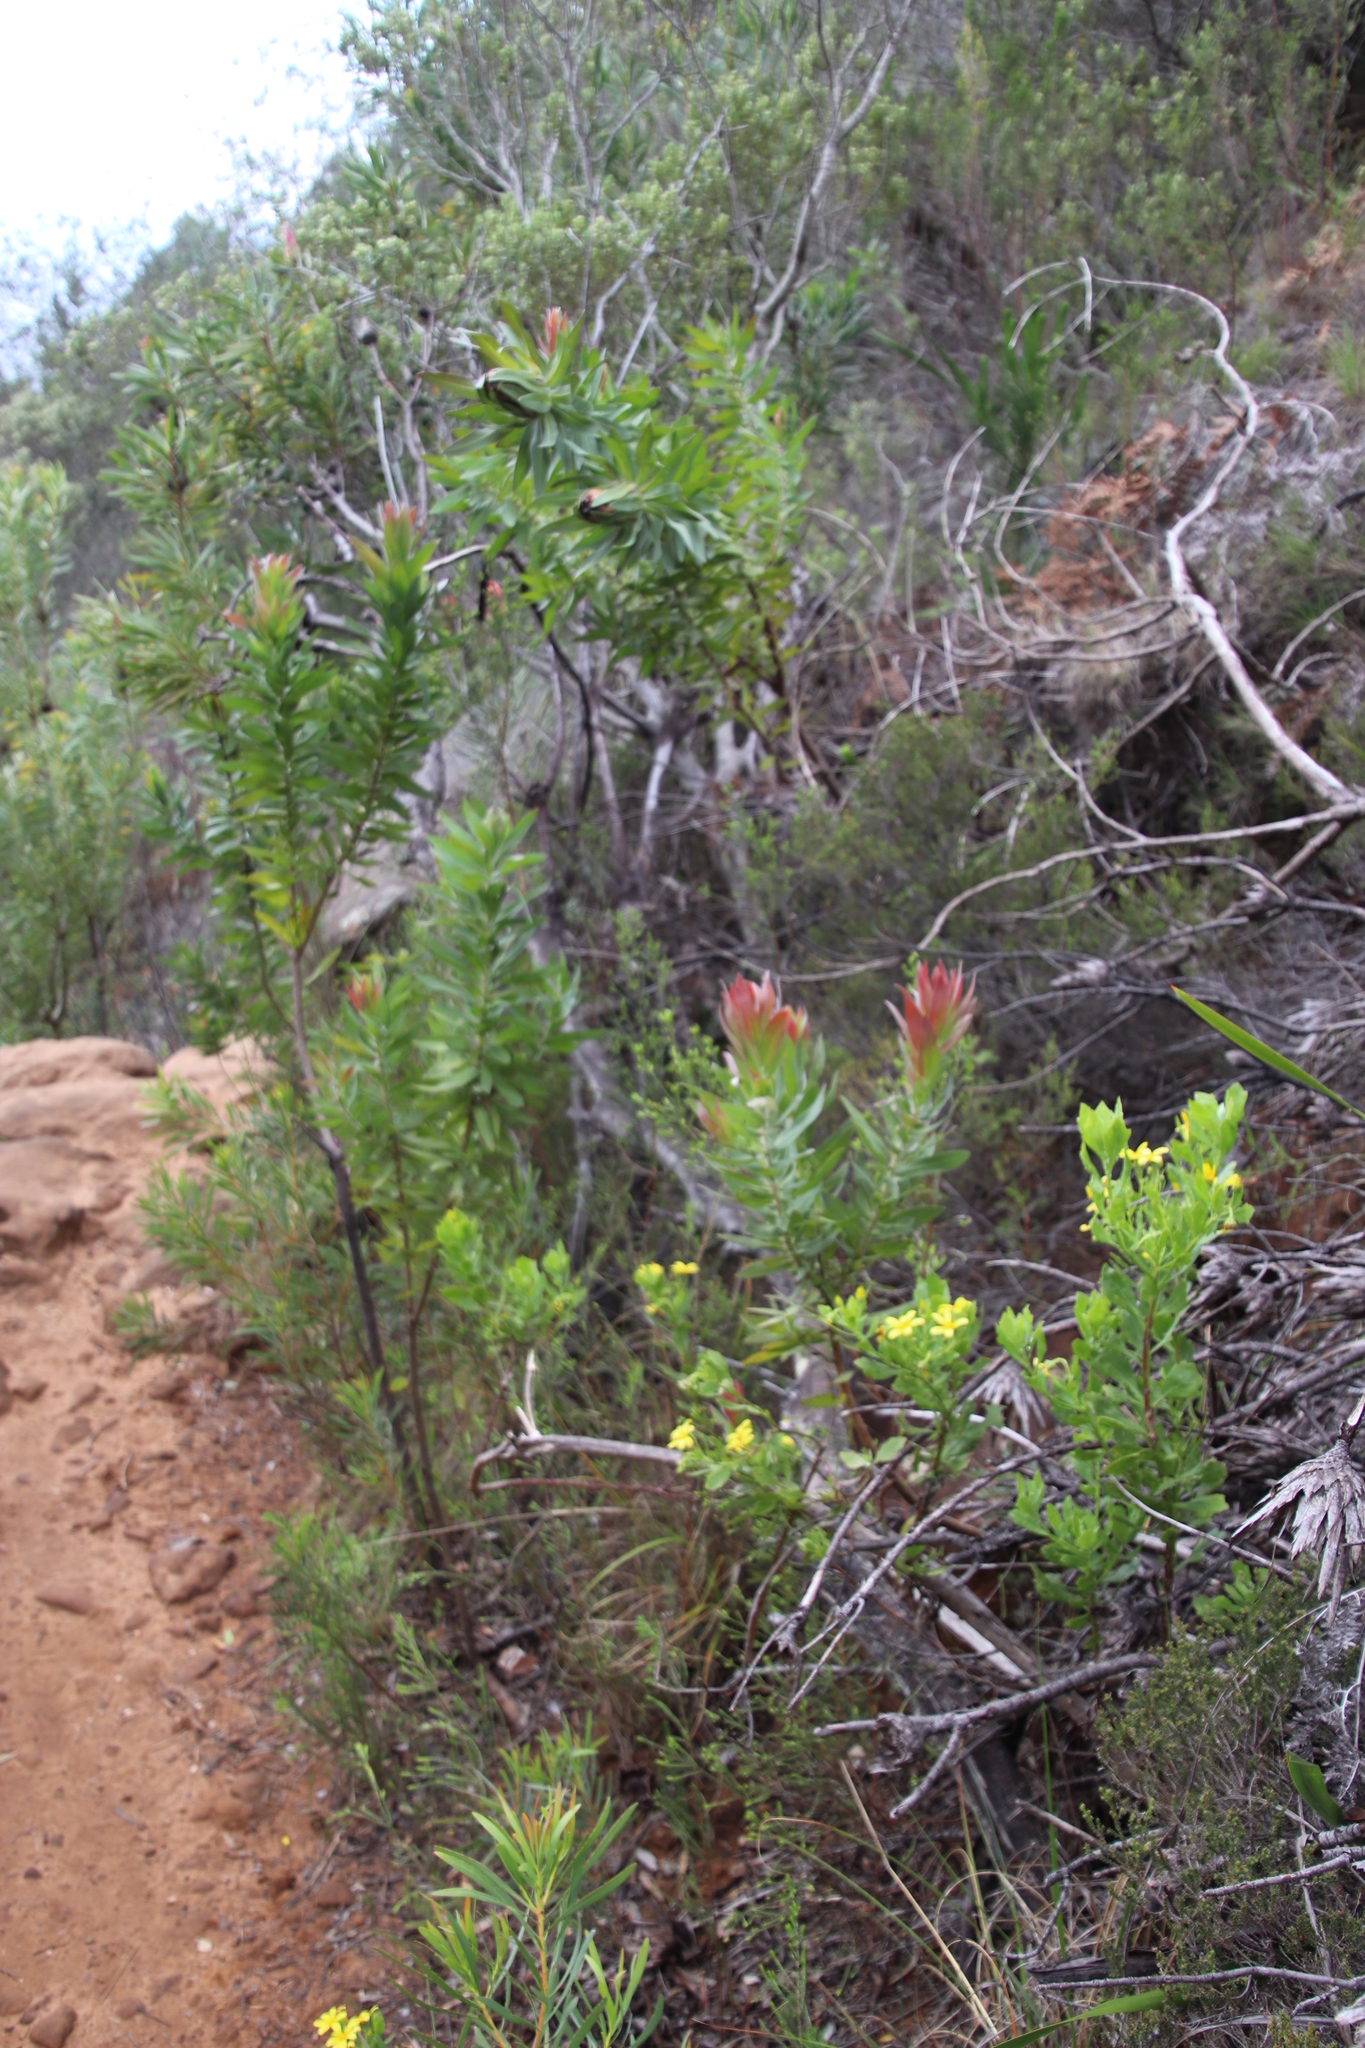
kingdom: Plantae
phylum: Tracheophyta
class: Magnoliopsida
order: Proteales
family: Proteaceae
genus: Protea
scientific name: Protea coronata
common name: Green sugarbush
